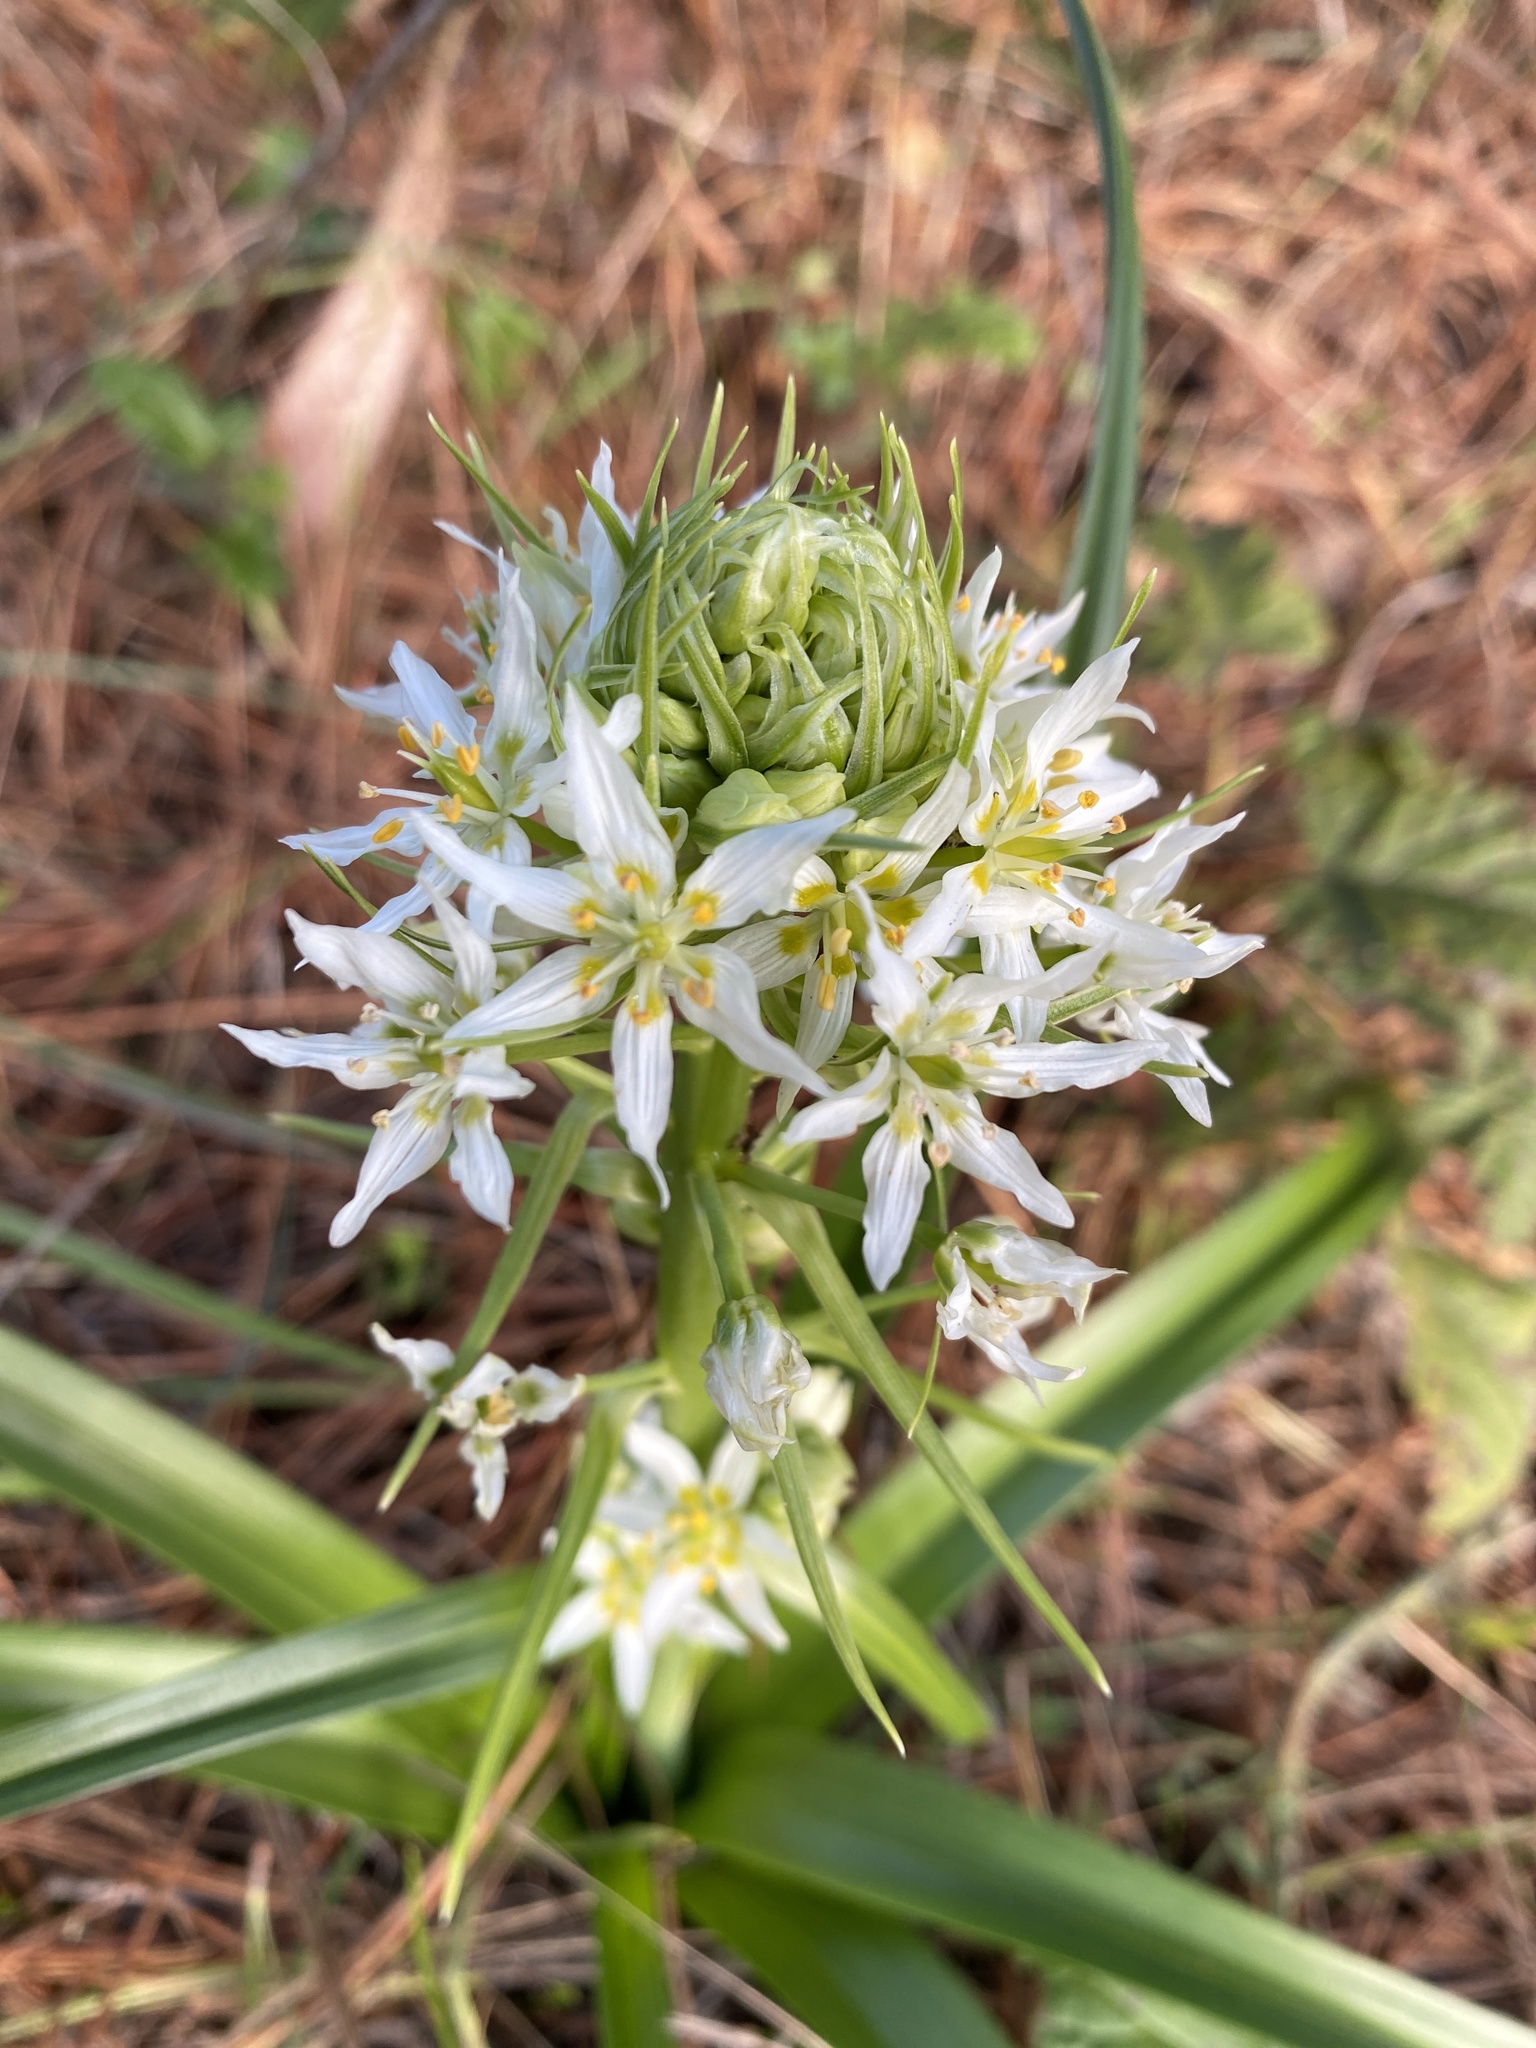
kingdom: Plantae
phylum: Tracheophyta
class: Liliopsida
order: Liliales
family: Melanthiaceae
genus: Toxicoscordion
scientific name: Toxicoscordion fremontii
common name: Fremont's death camas
